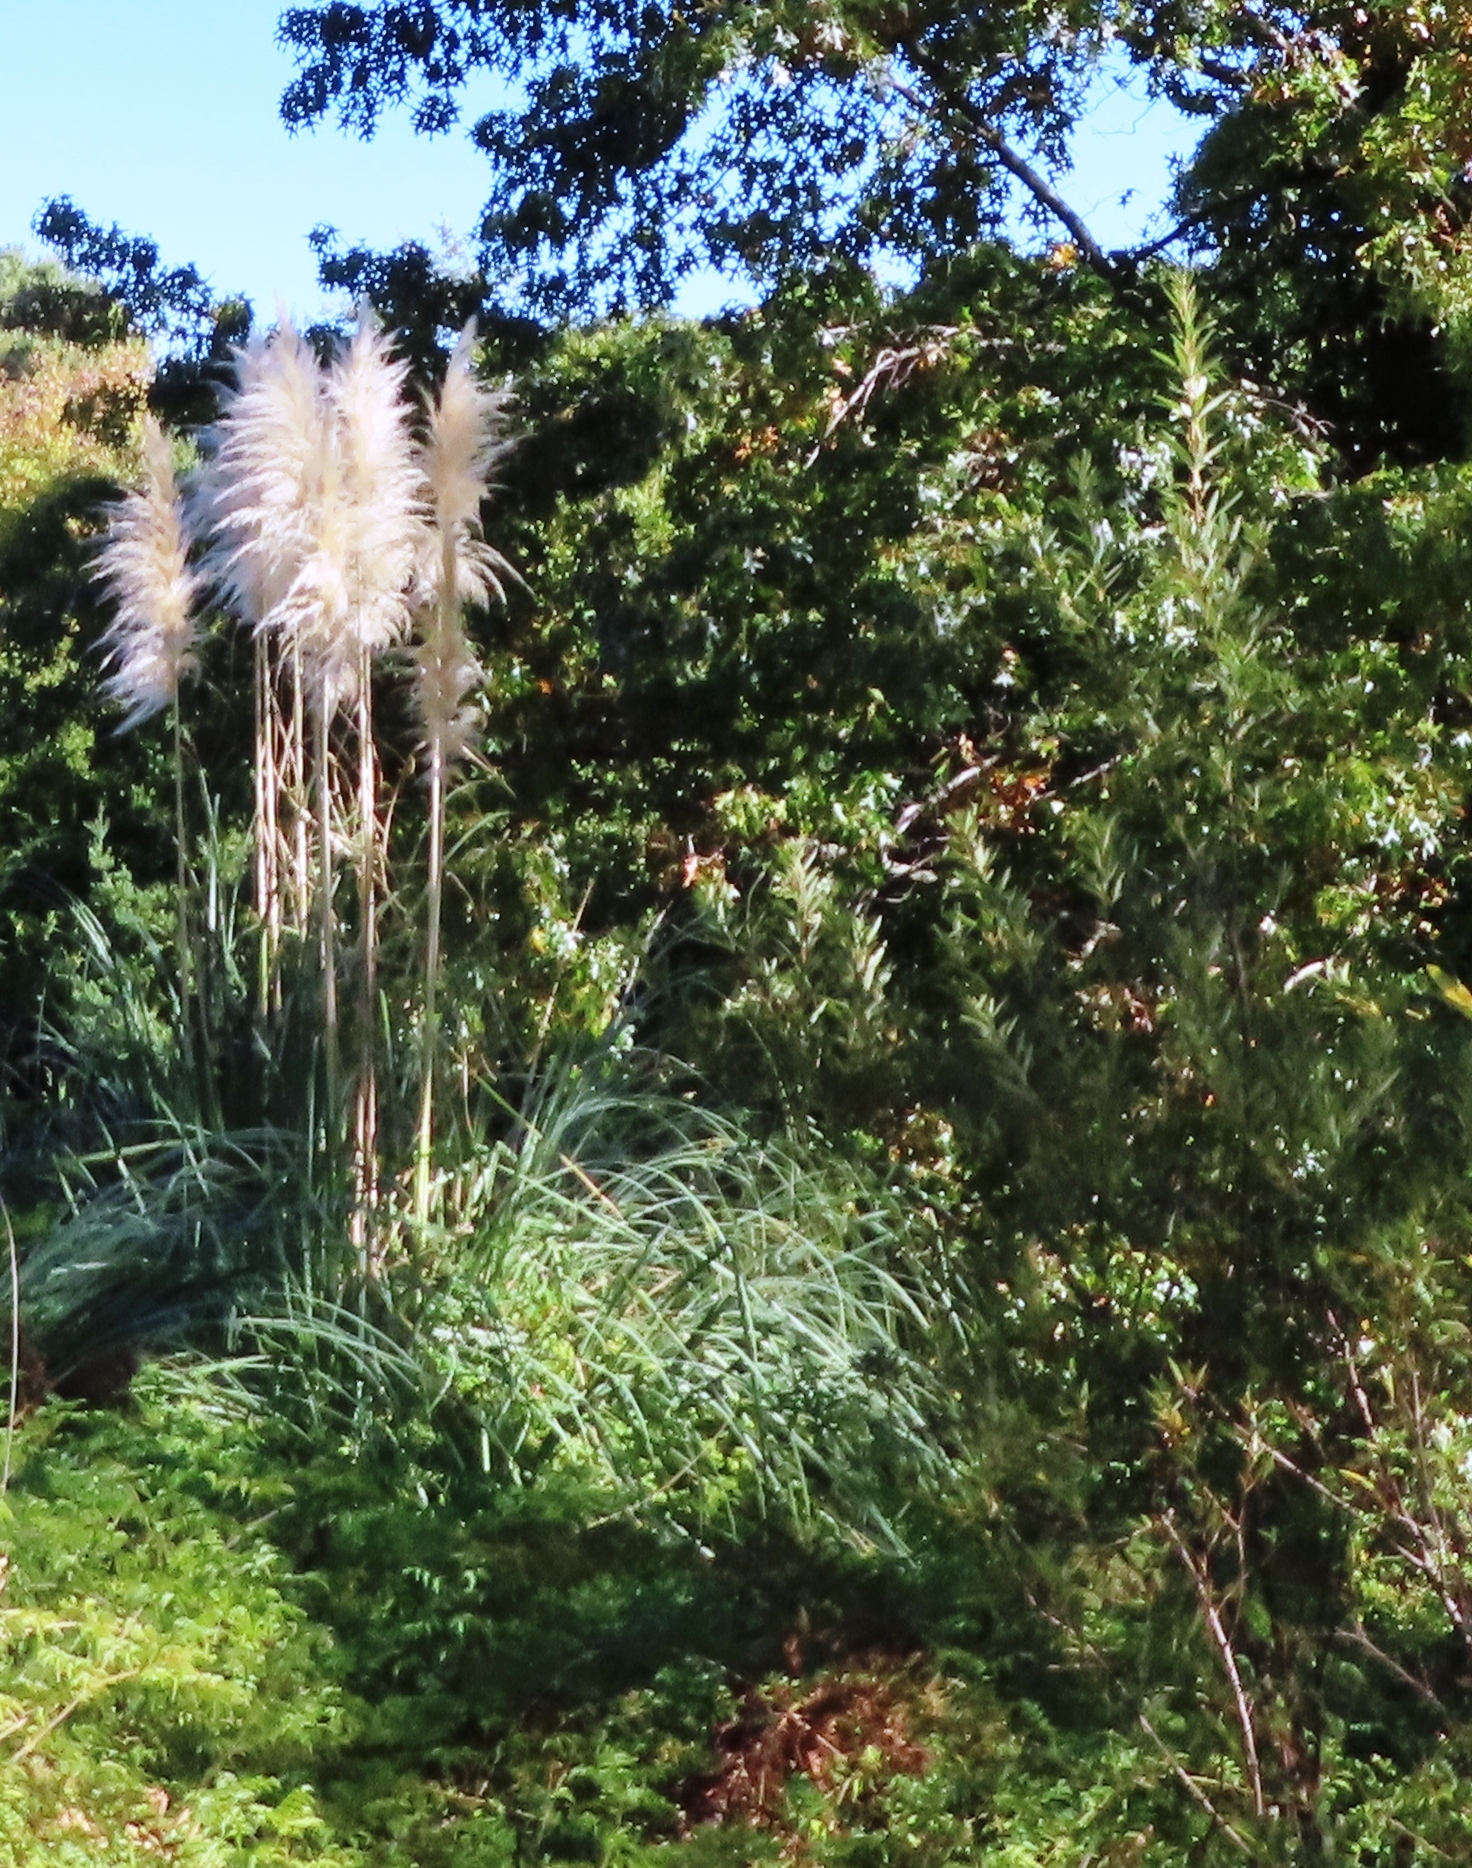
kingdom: Plantae
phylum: Tracheophyta
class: Liliopsida
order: Poales
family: Poaceae
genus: Cortaderia
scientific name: Cortaderia selloana
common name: Uruguayan pampas grass
